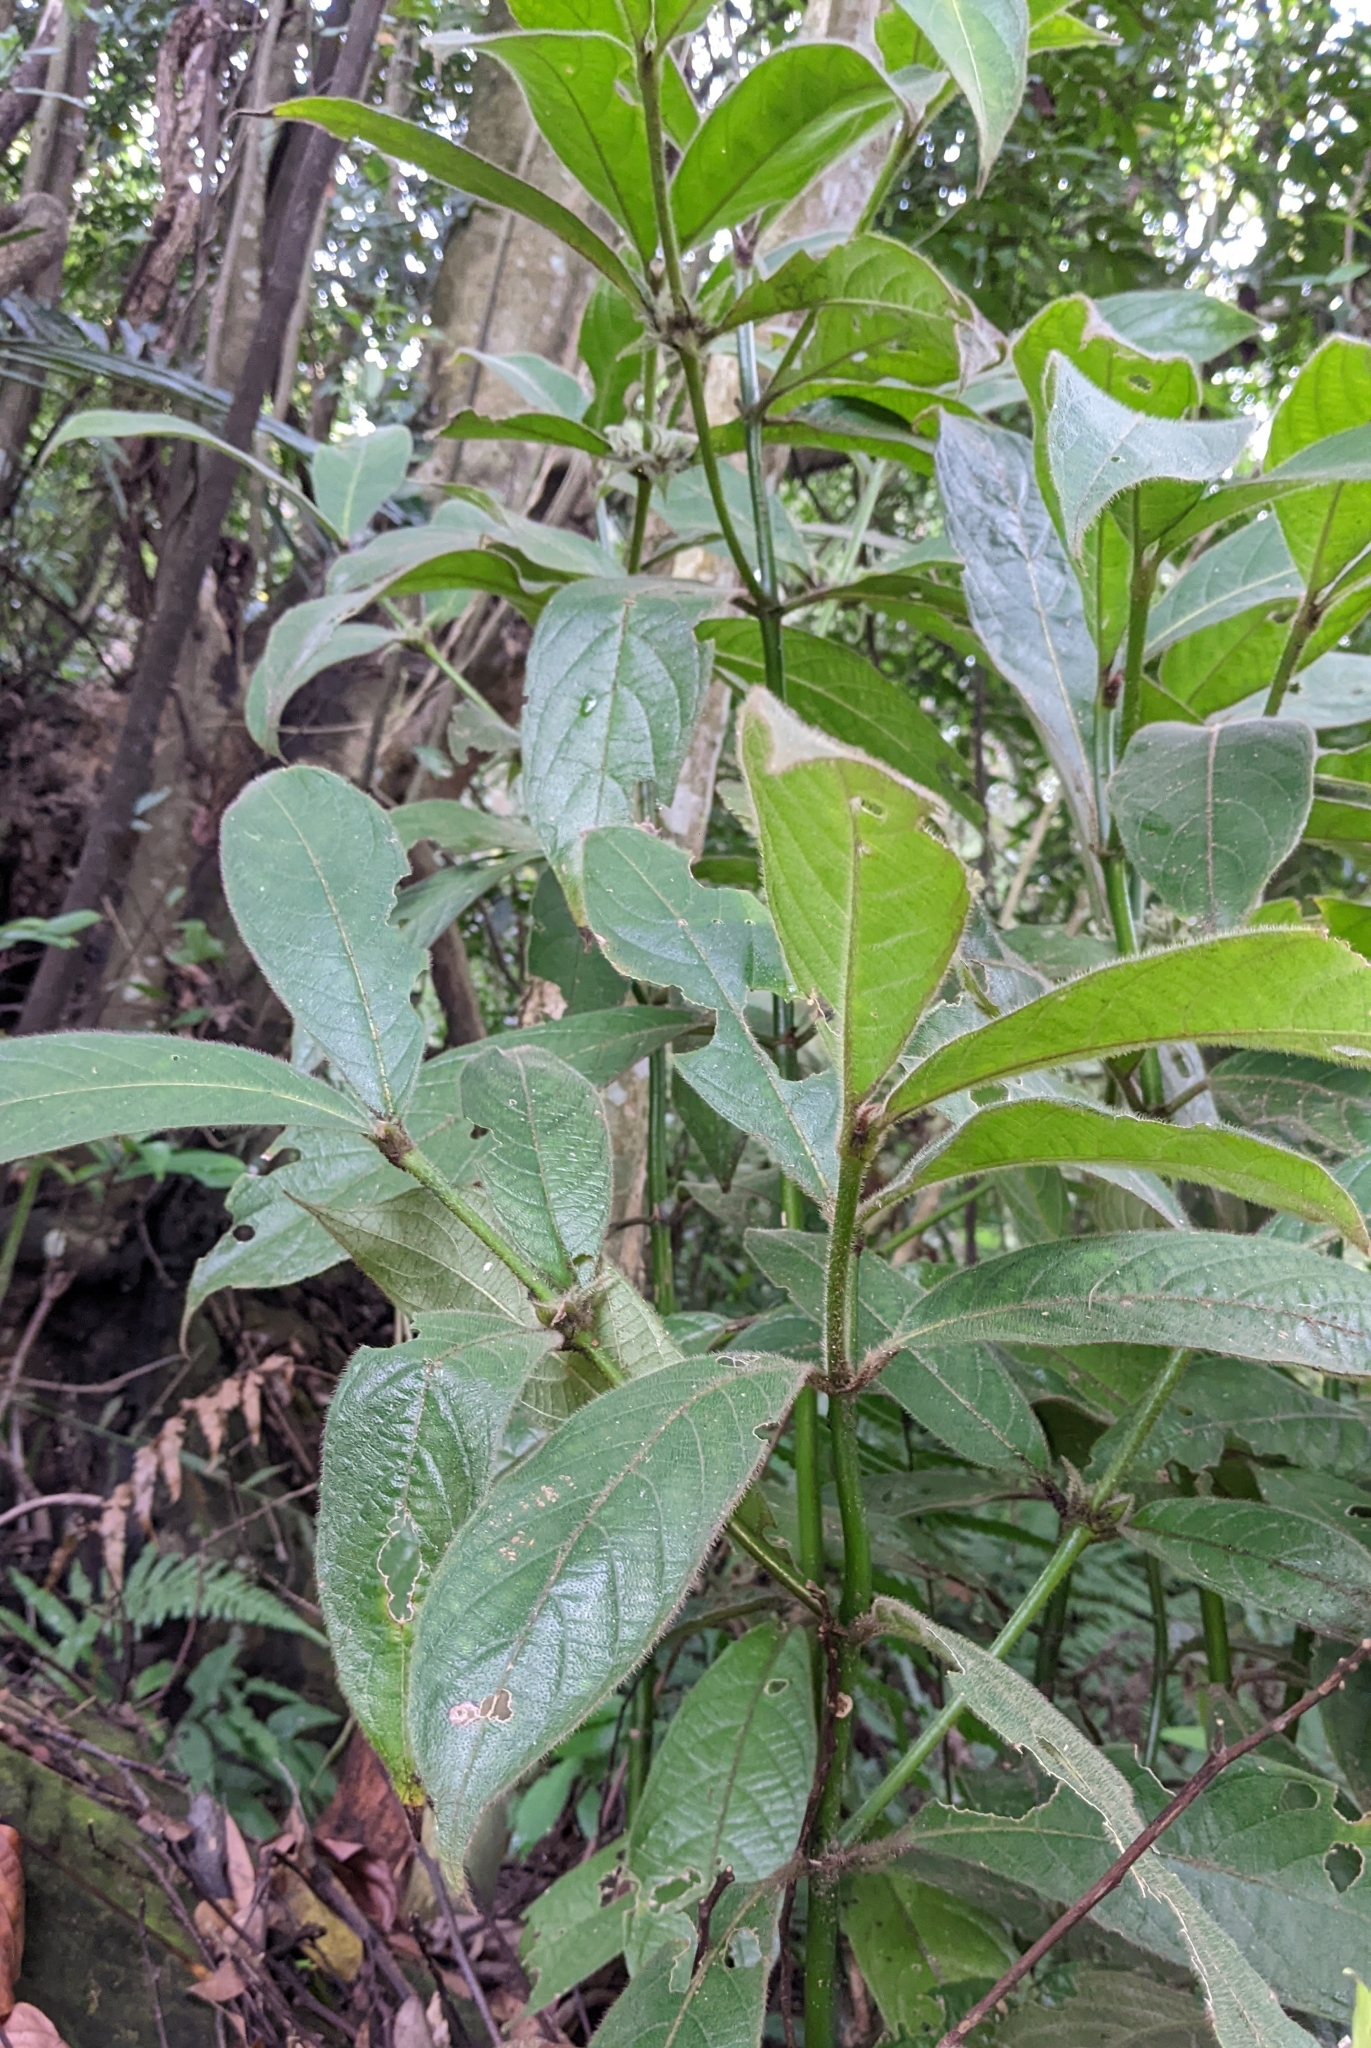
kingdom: Plantae
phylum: Tracheophyta
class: Magnoliopsida
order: Gentianales
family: Rubiaceae
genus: Lasianthus
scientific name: Lasianthus cyanocarpus
